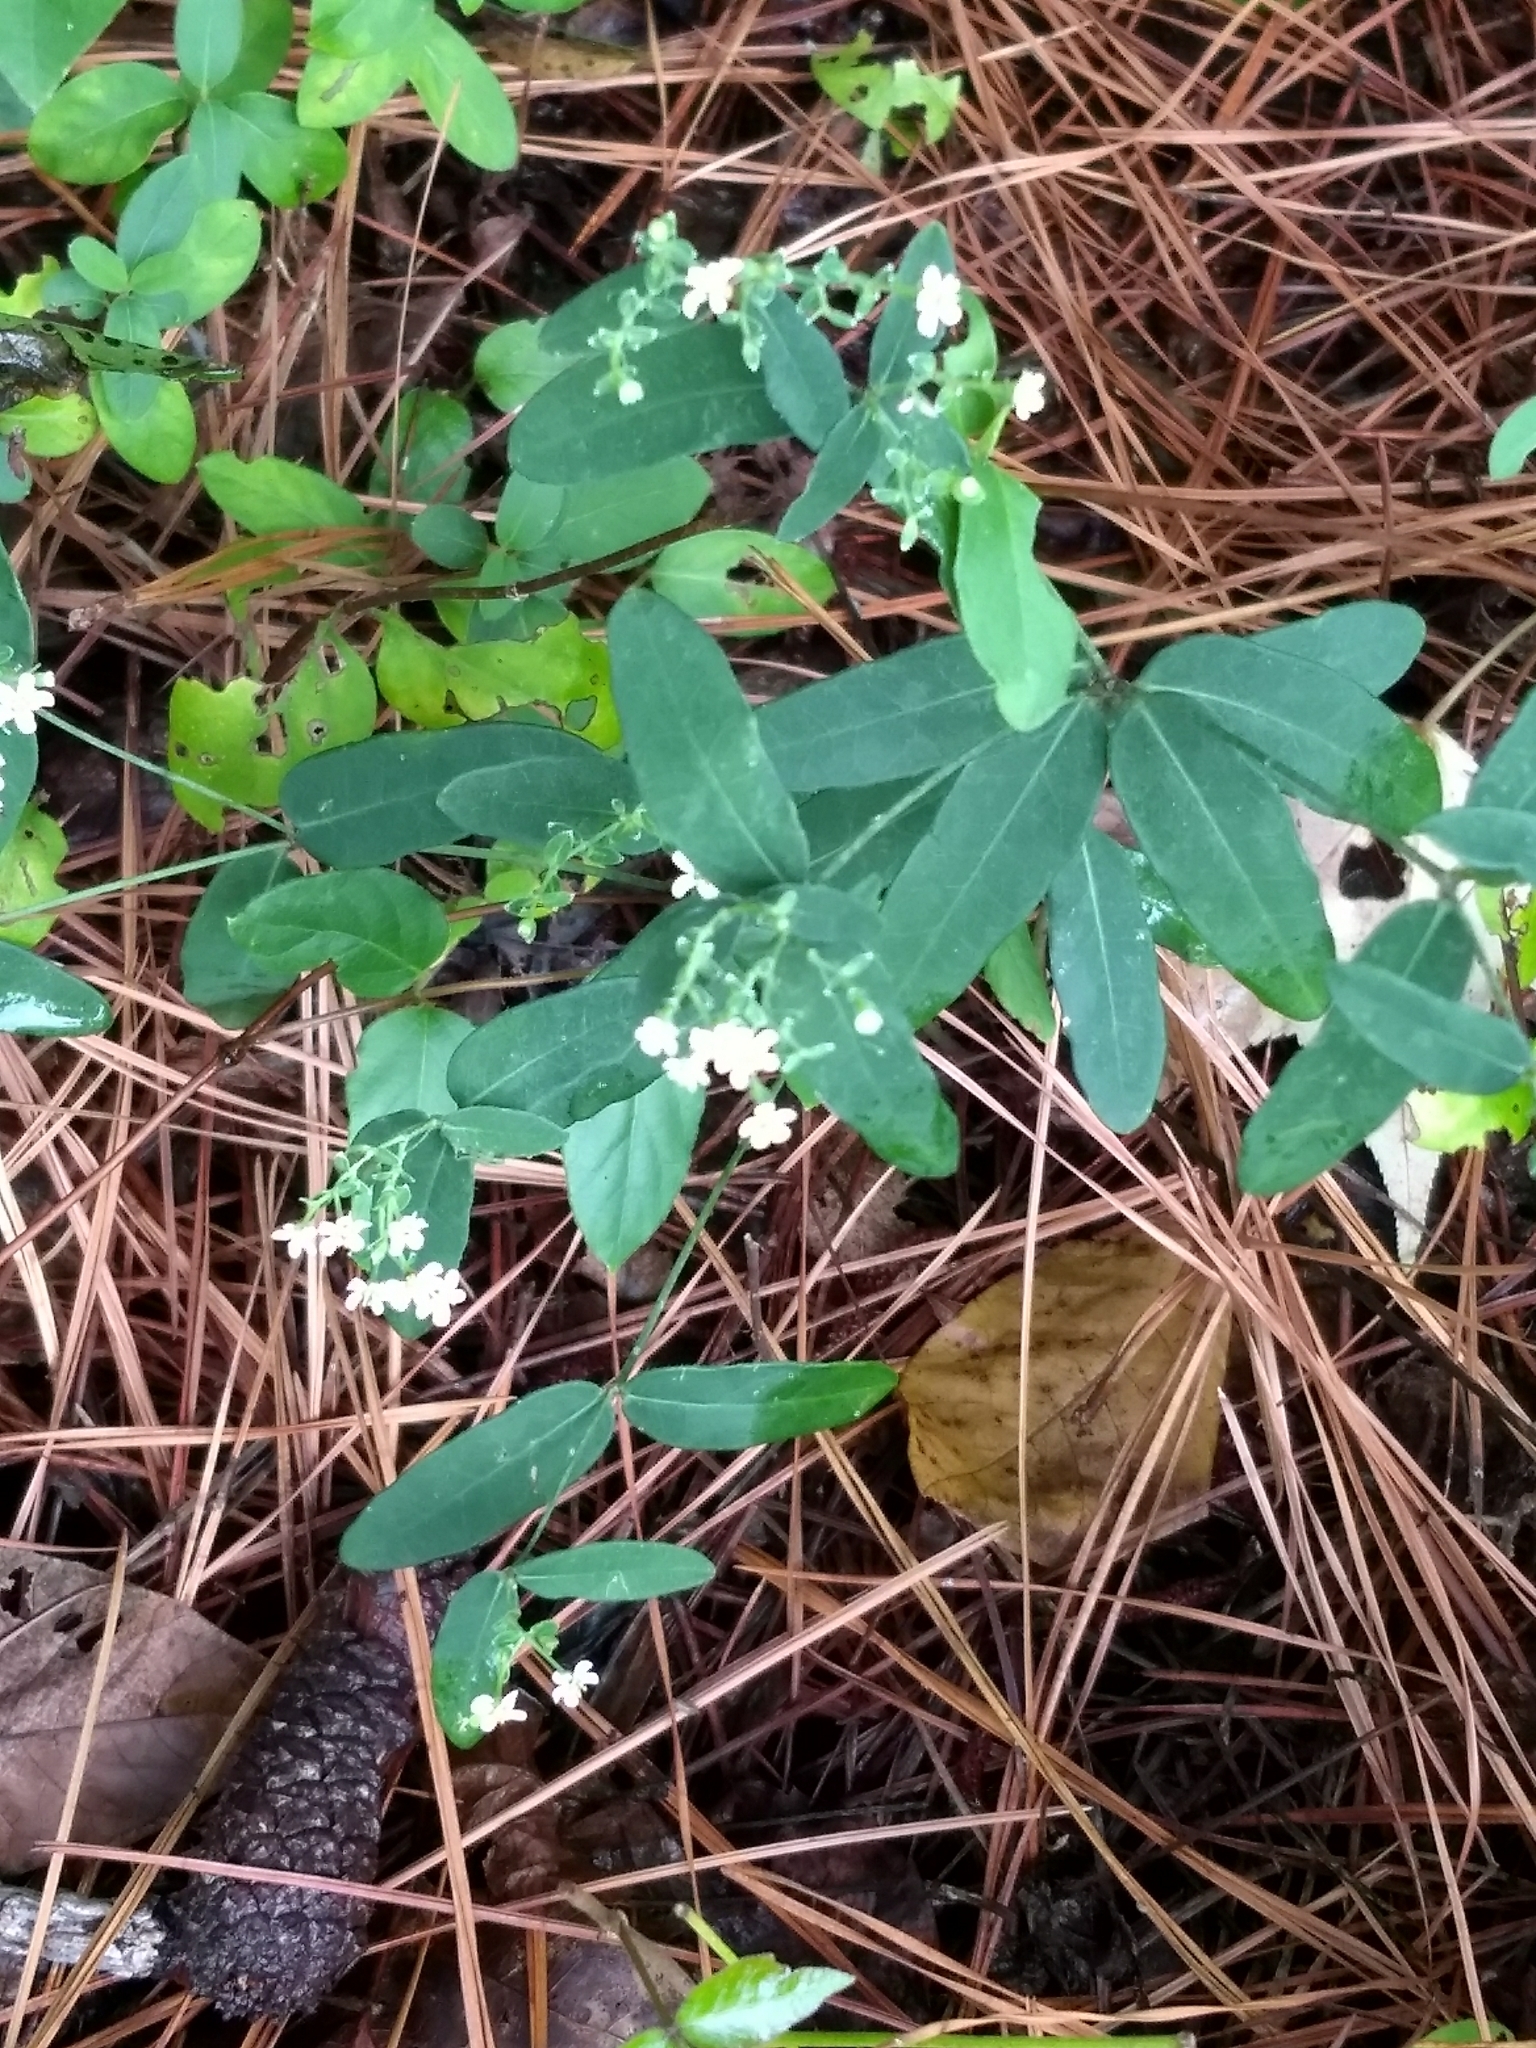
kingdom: Plantae
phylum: Tracheophyta
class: Magnoliopsida
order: Malpighiales
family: Euphorbiaceae
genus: Euphorbia
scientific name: Euphorbia corollata
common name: Flowering spurge
